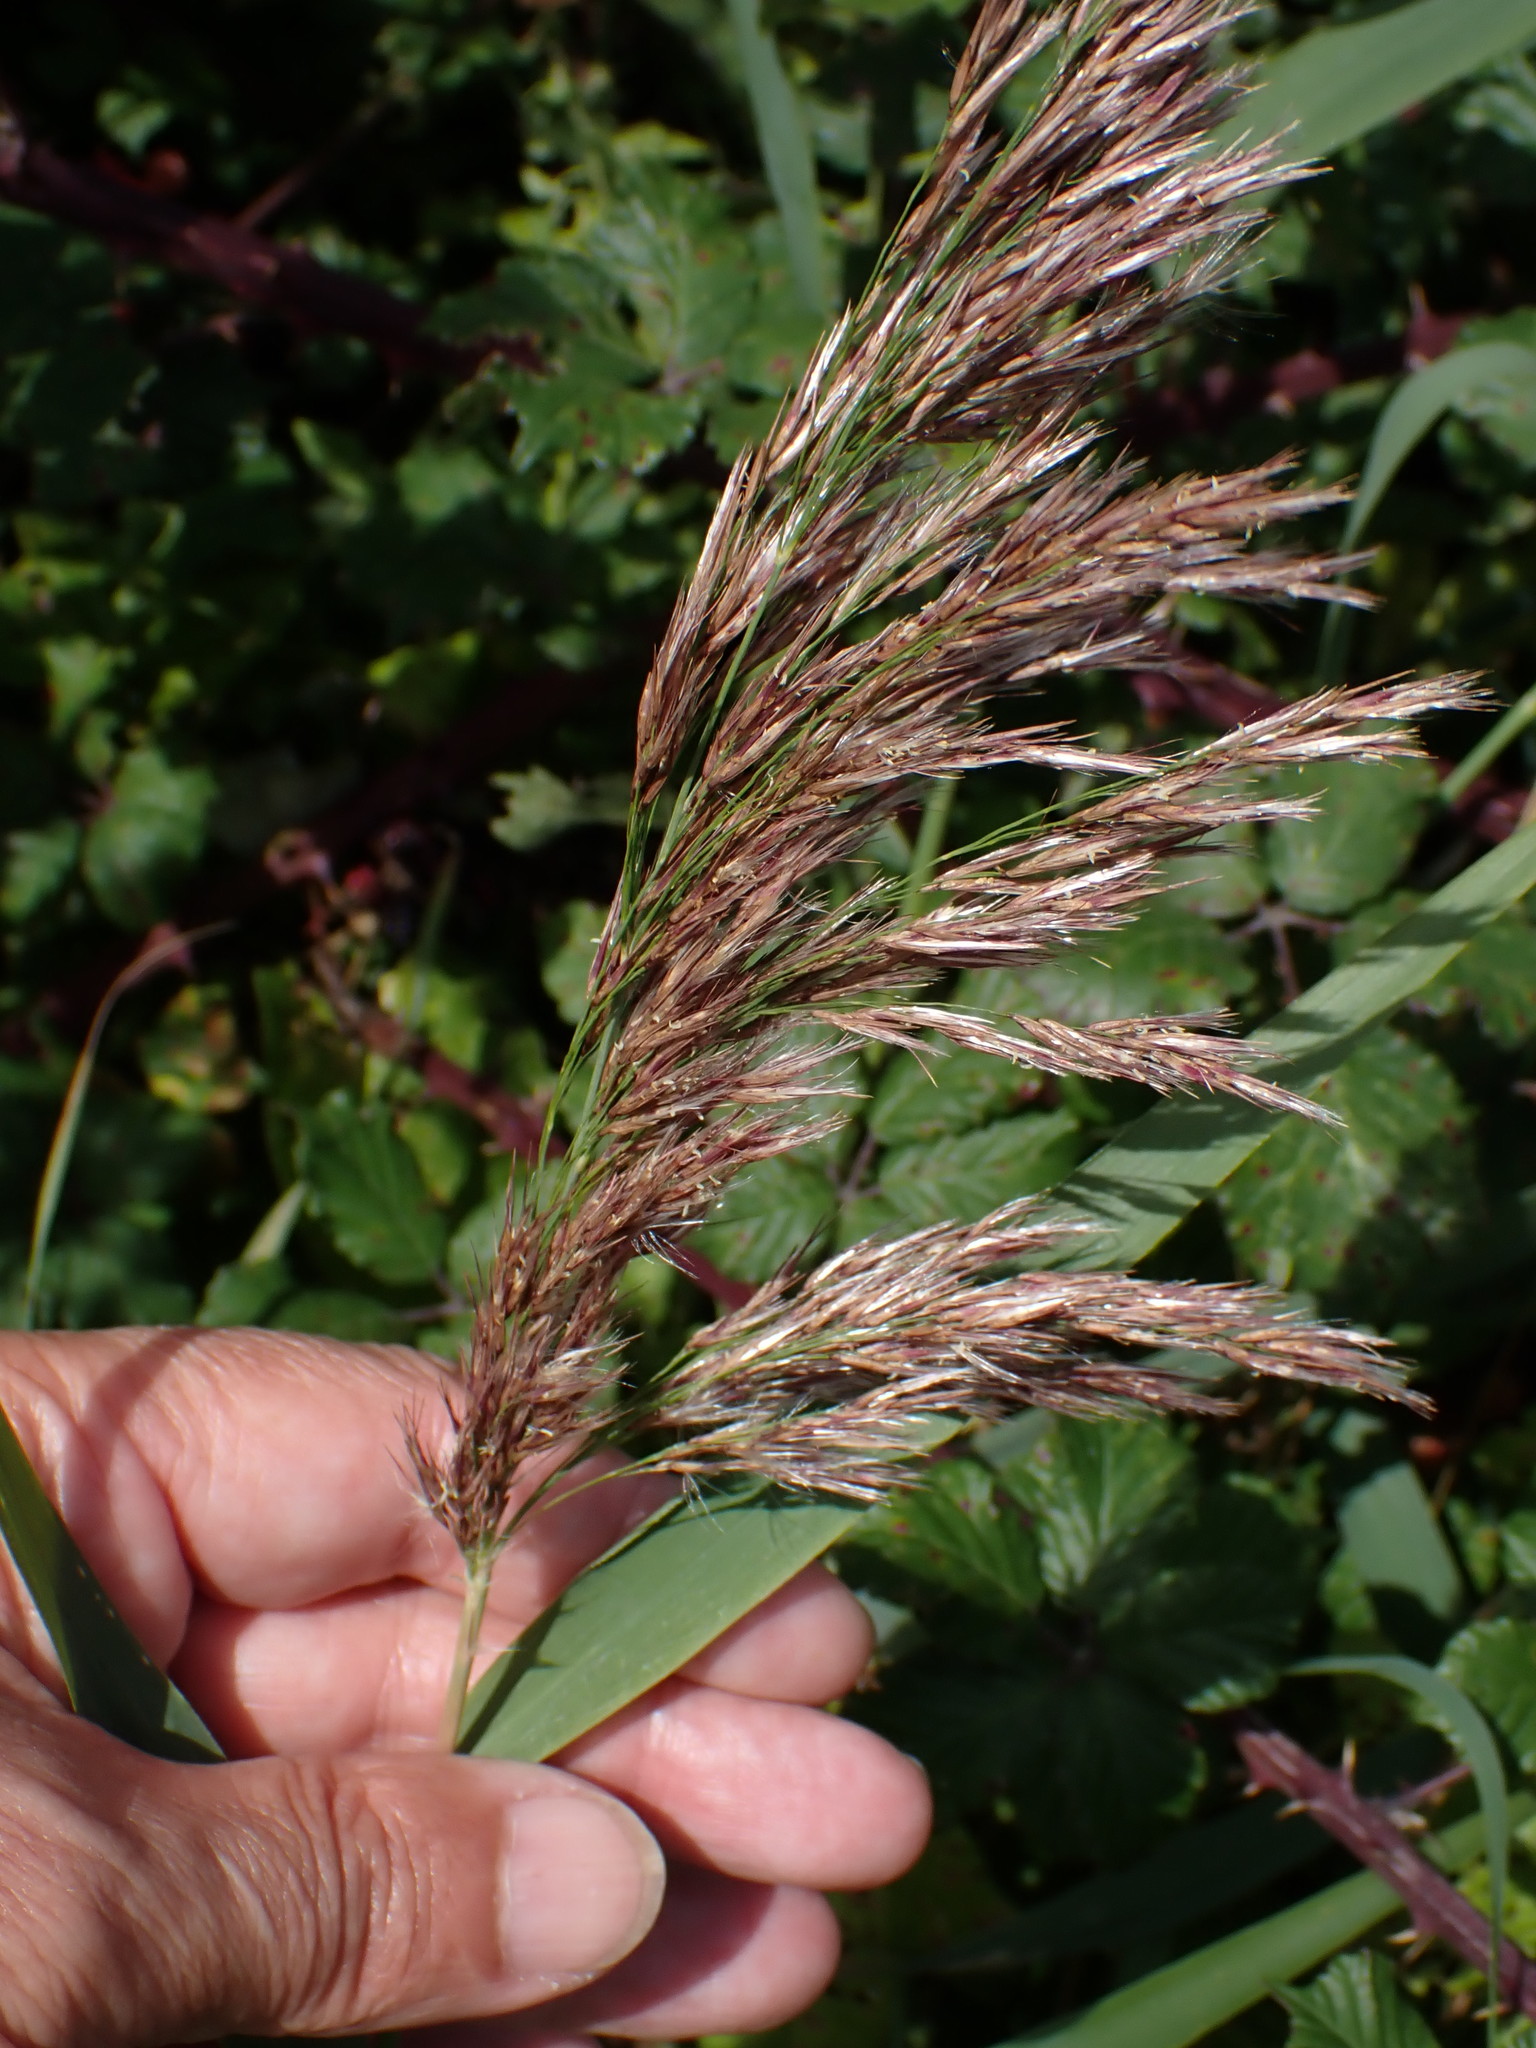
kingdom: Plantae
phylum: Tracheophyta
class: Liliopsida
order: Poales
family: Poaceae
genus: Phragmites
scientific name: Phragmites australis
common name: Common reed
